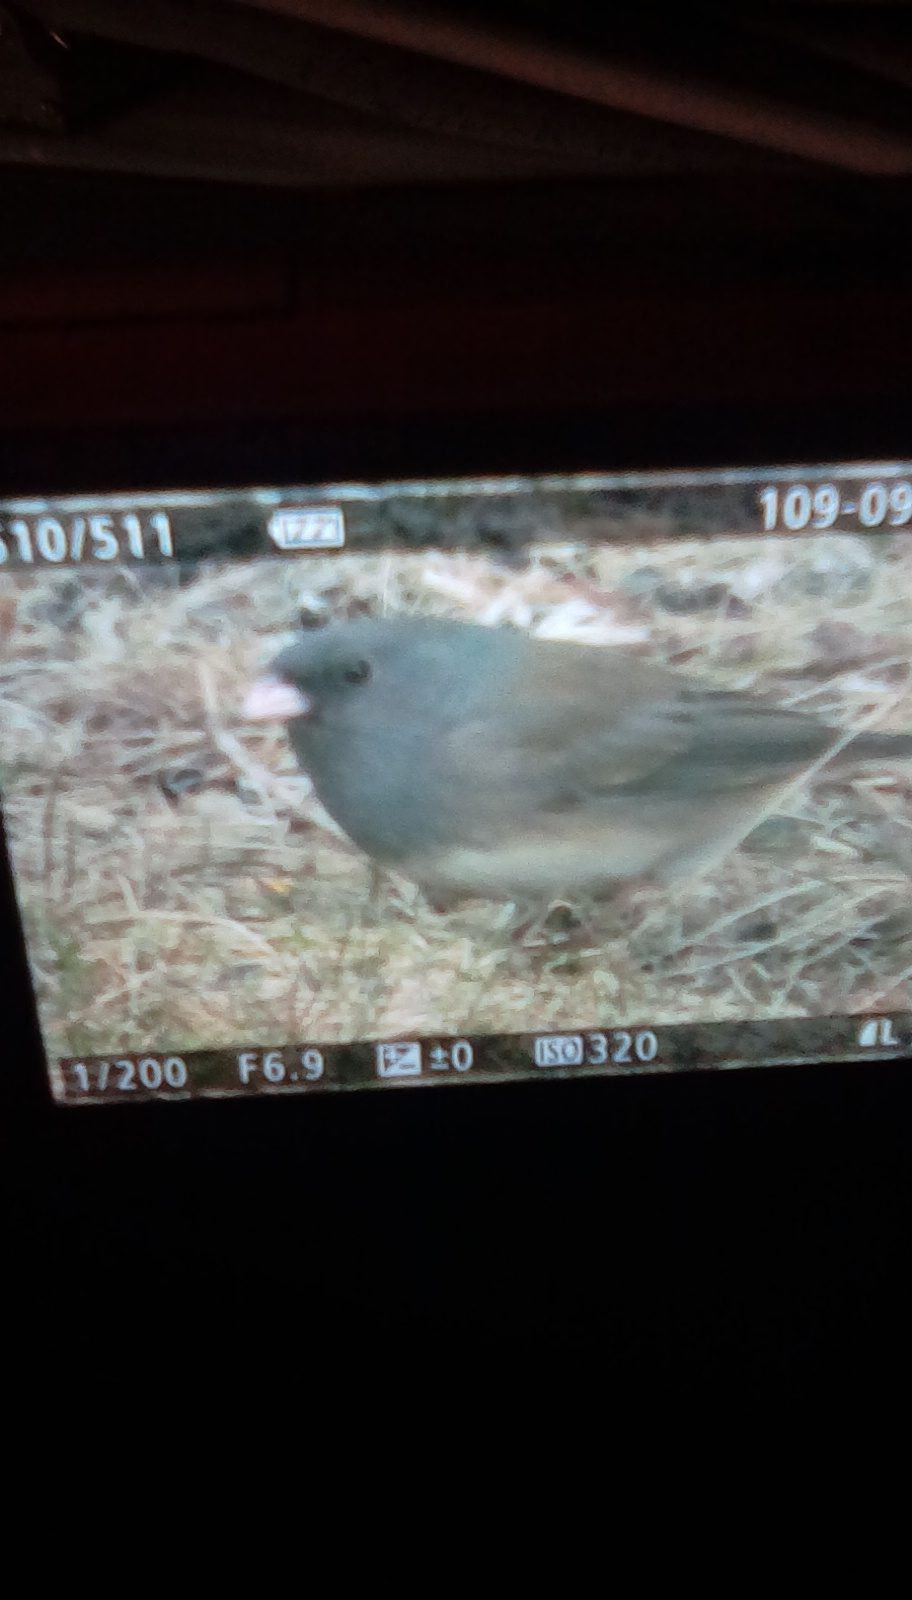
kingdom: Animalia
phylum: Chordata
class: Aves
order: Passeriformes
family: Passerellidae
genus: Junco
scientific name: Junco hyemalis
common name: Dark-eyed junco
